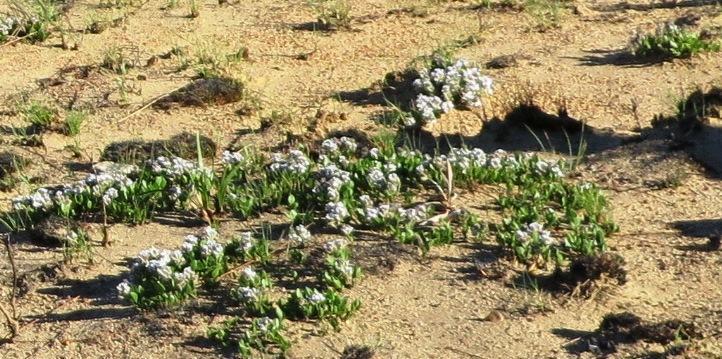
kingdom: Plantae
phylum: Tracheophyta
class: Magnoliopsida
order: Fabales
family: Fabaceae
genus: Psoralea
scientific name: Psoralea rotundifolia
